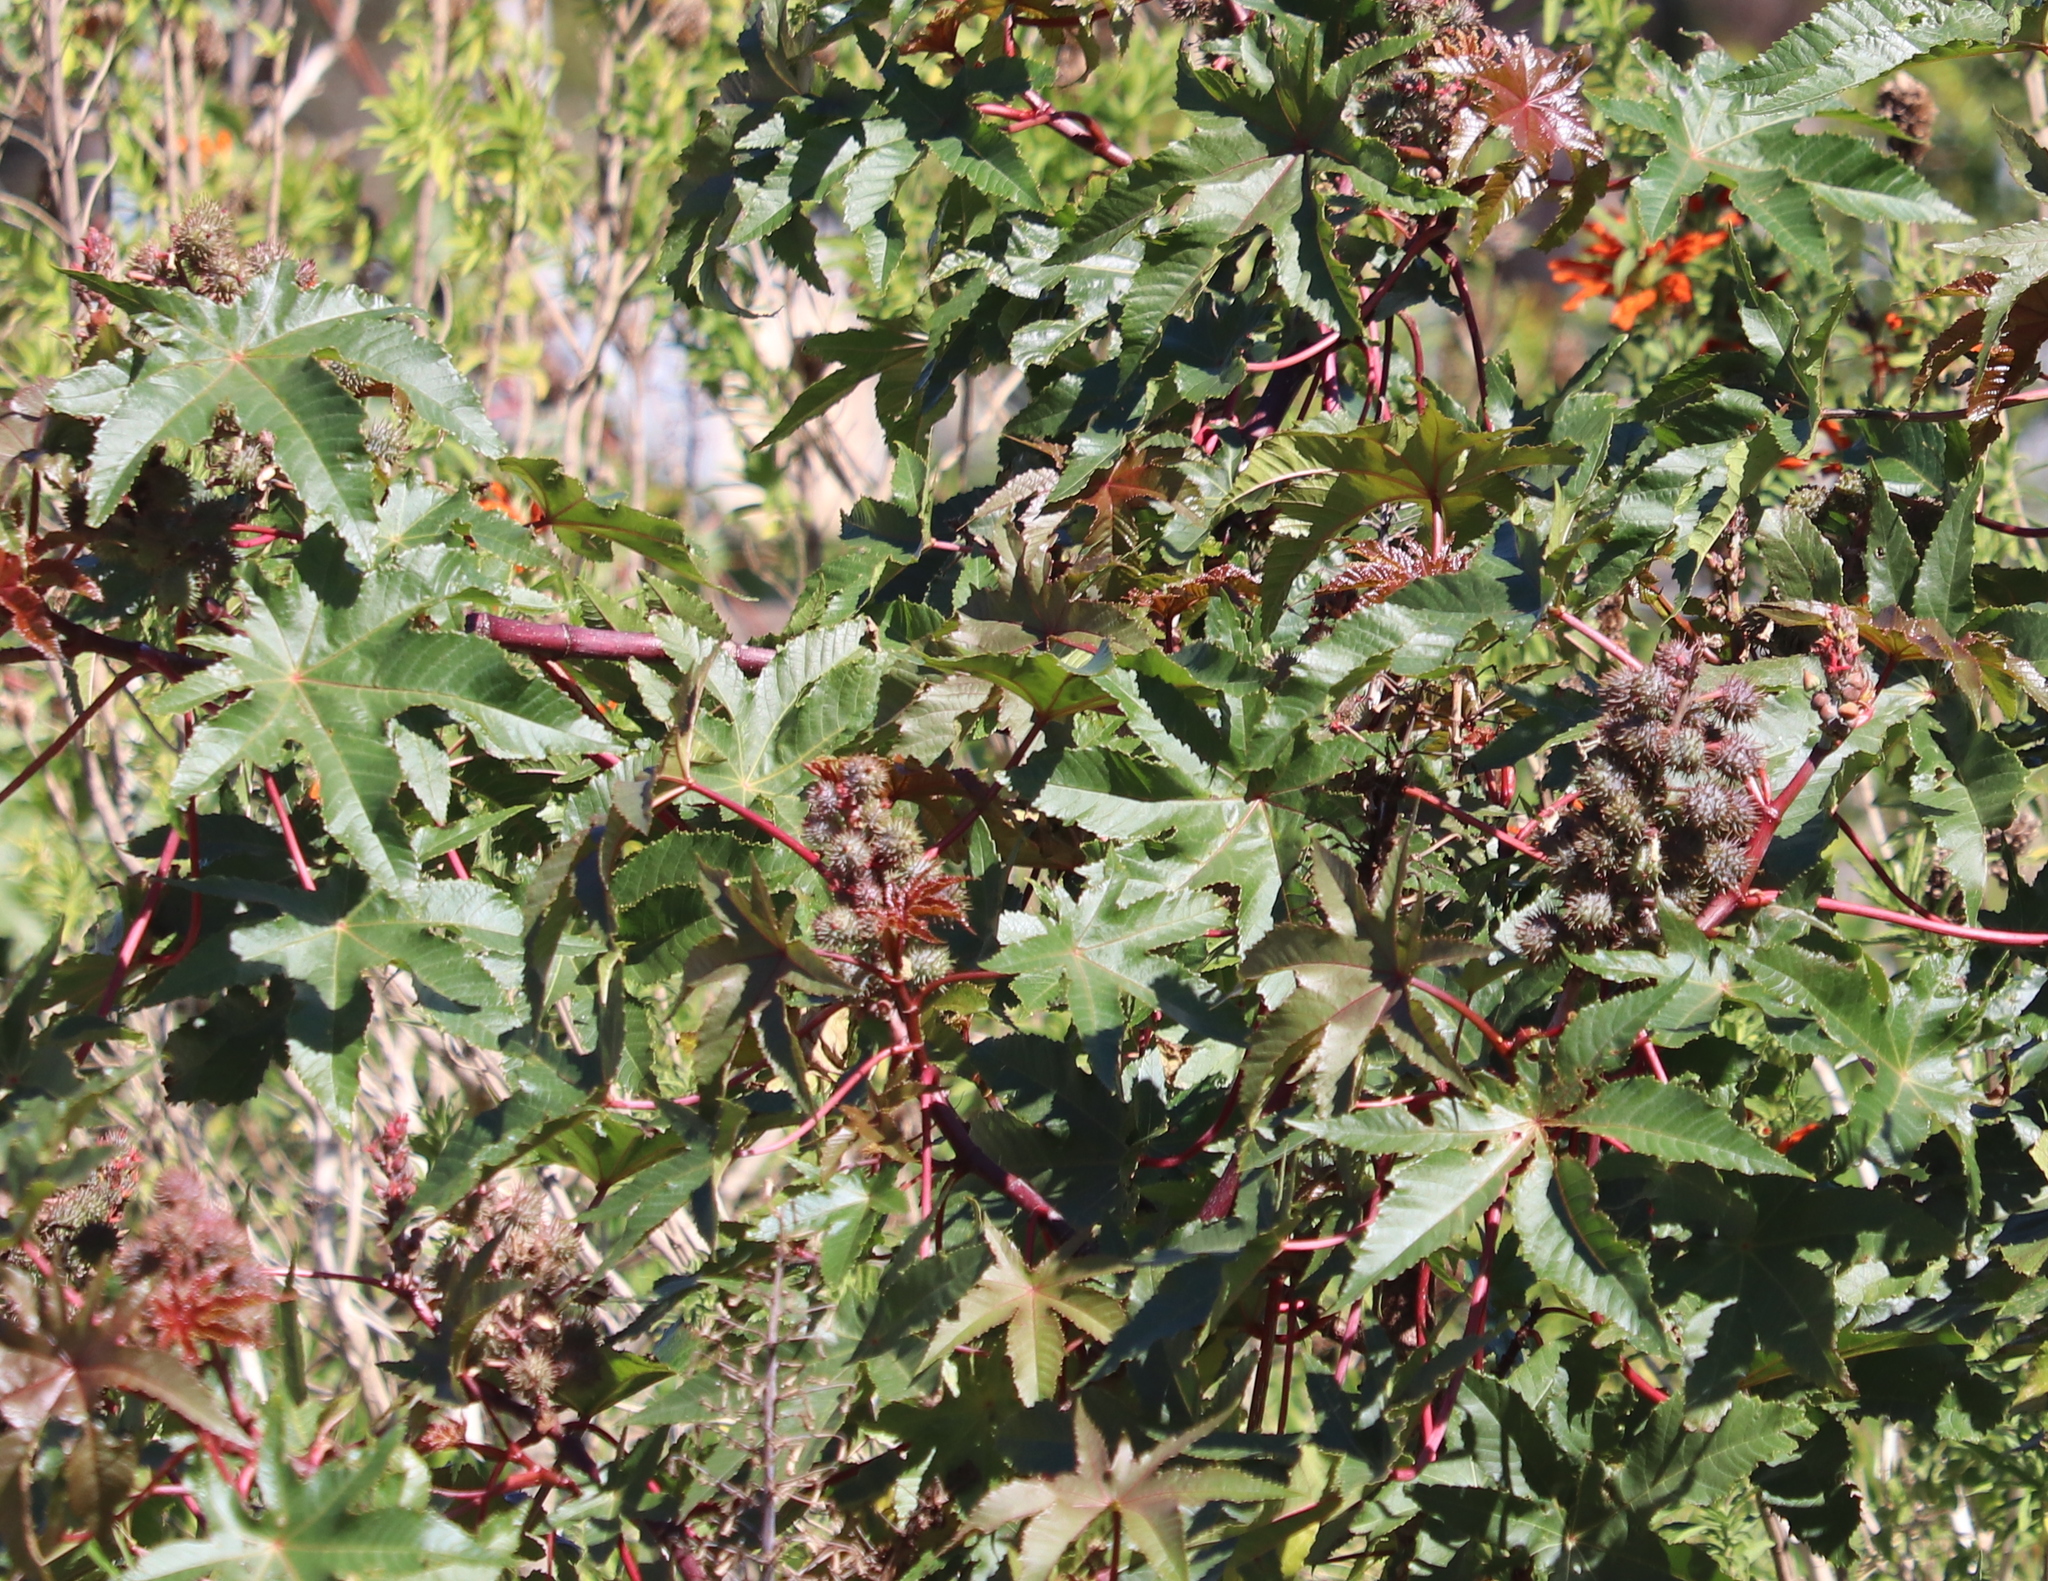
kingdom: Plantae
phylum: Tracheophyta
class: Magnoliopsida
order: Malpighiales
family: Euphorbiaceae
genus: Ricinus
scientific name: Ricinus communis
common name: Castor-oil-plant
